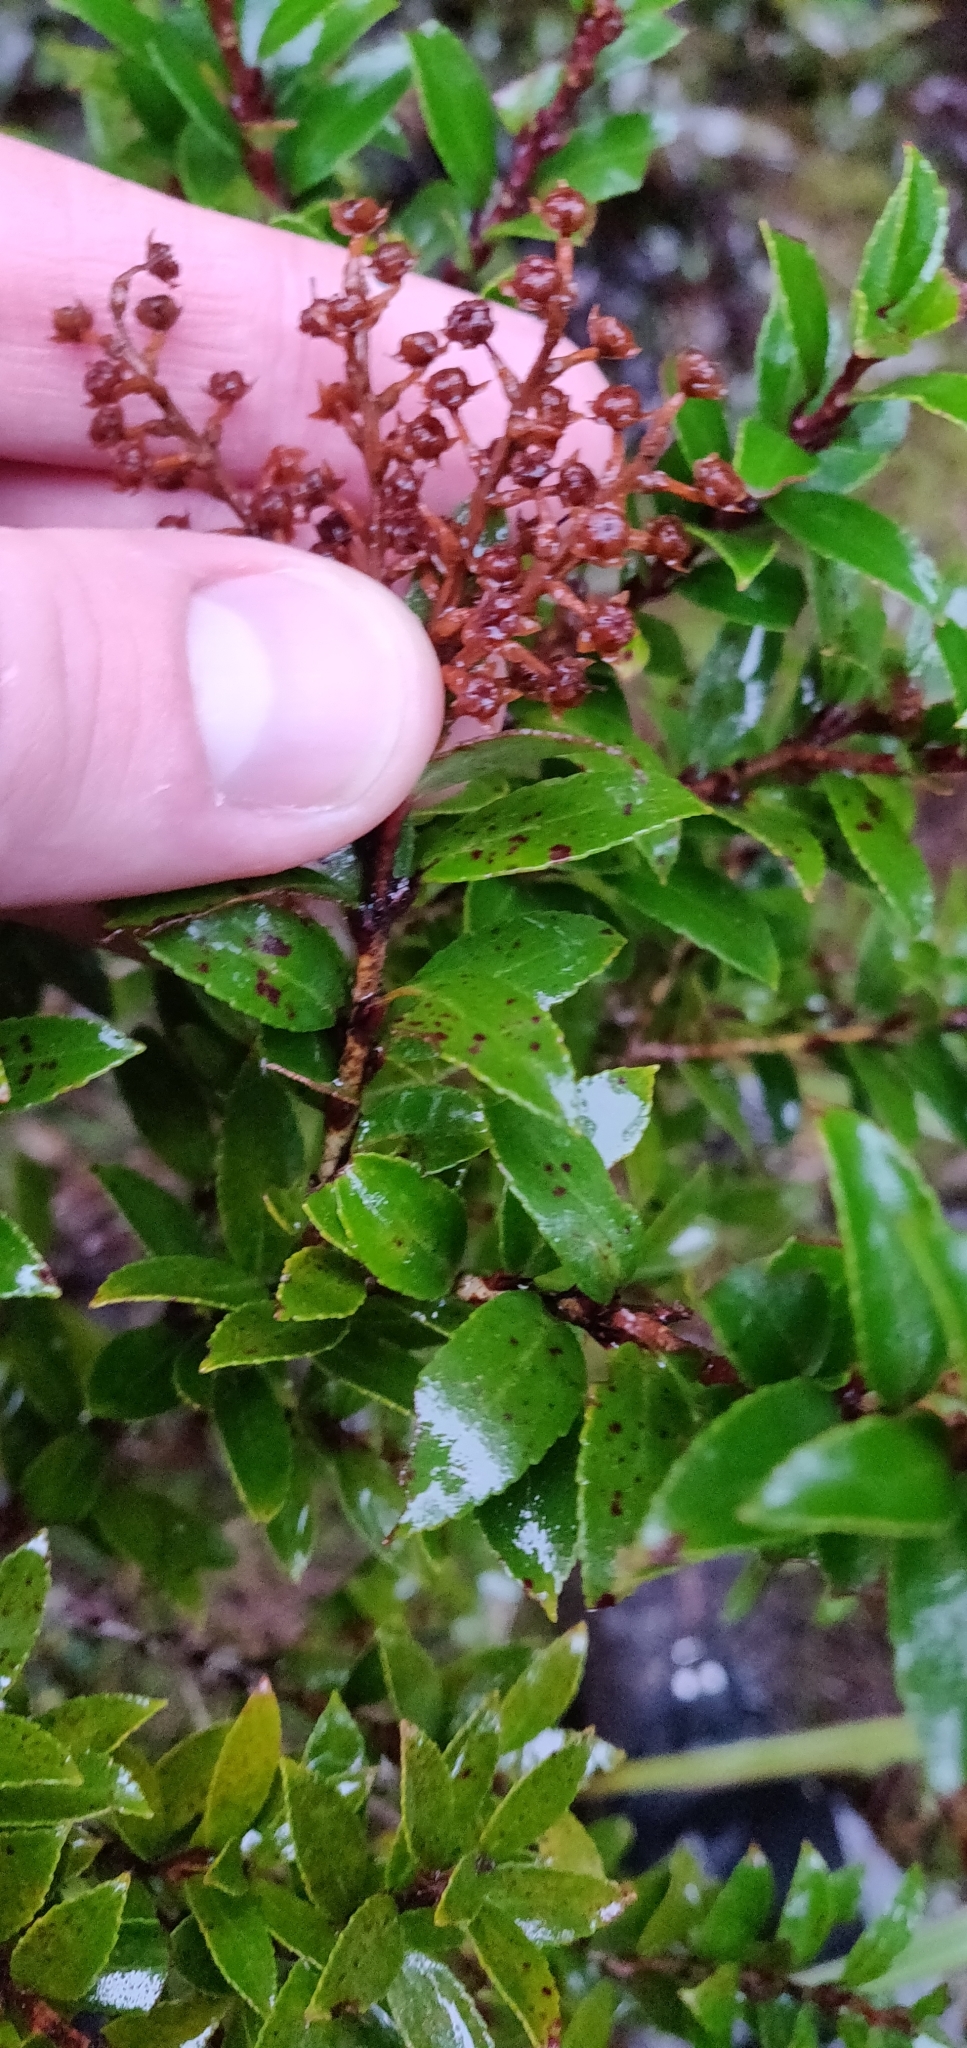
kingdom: Plantae
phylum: Tracheophyta
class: Magnoliopsida
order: Ericales
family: Ericaceae
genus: Gaultheria
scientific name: Gaultheria crassa
